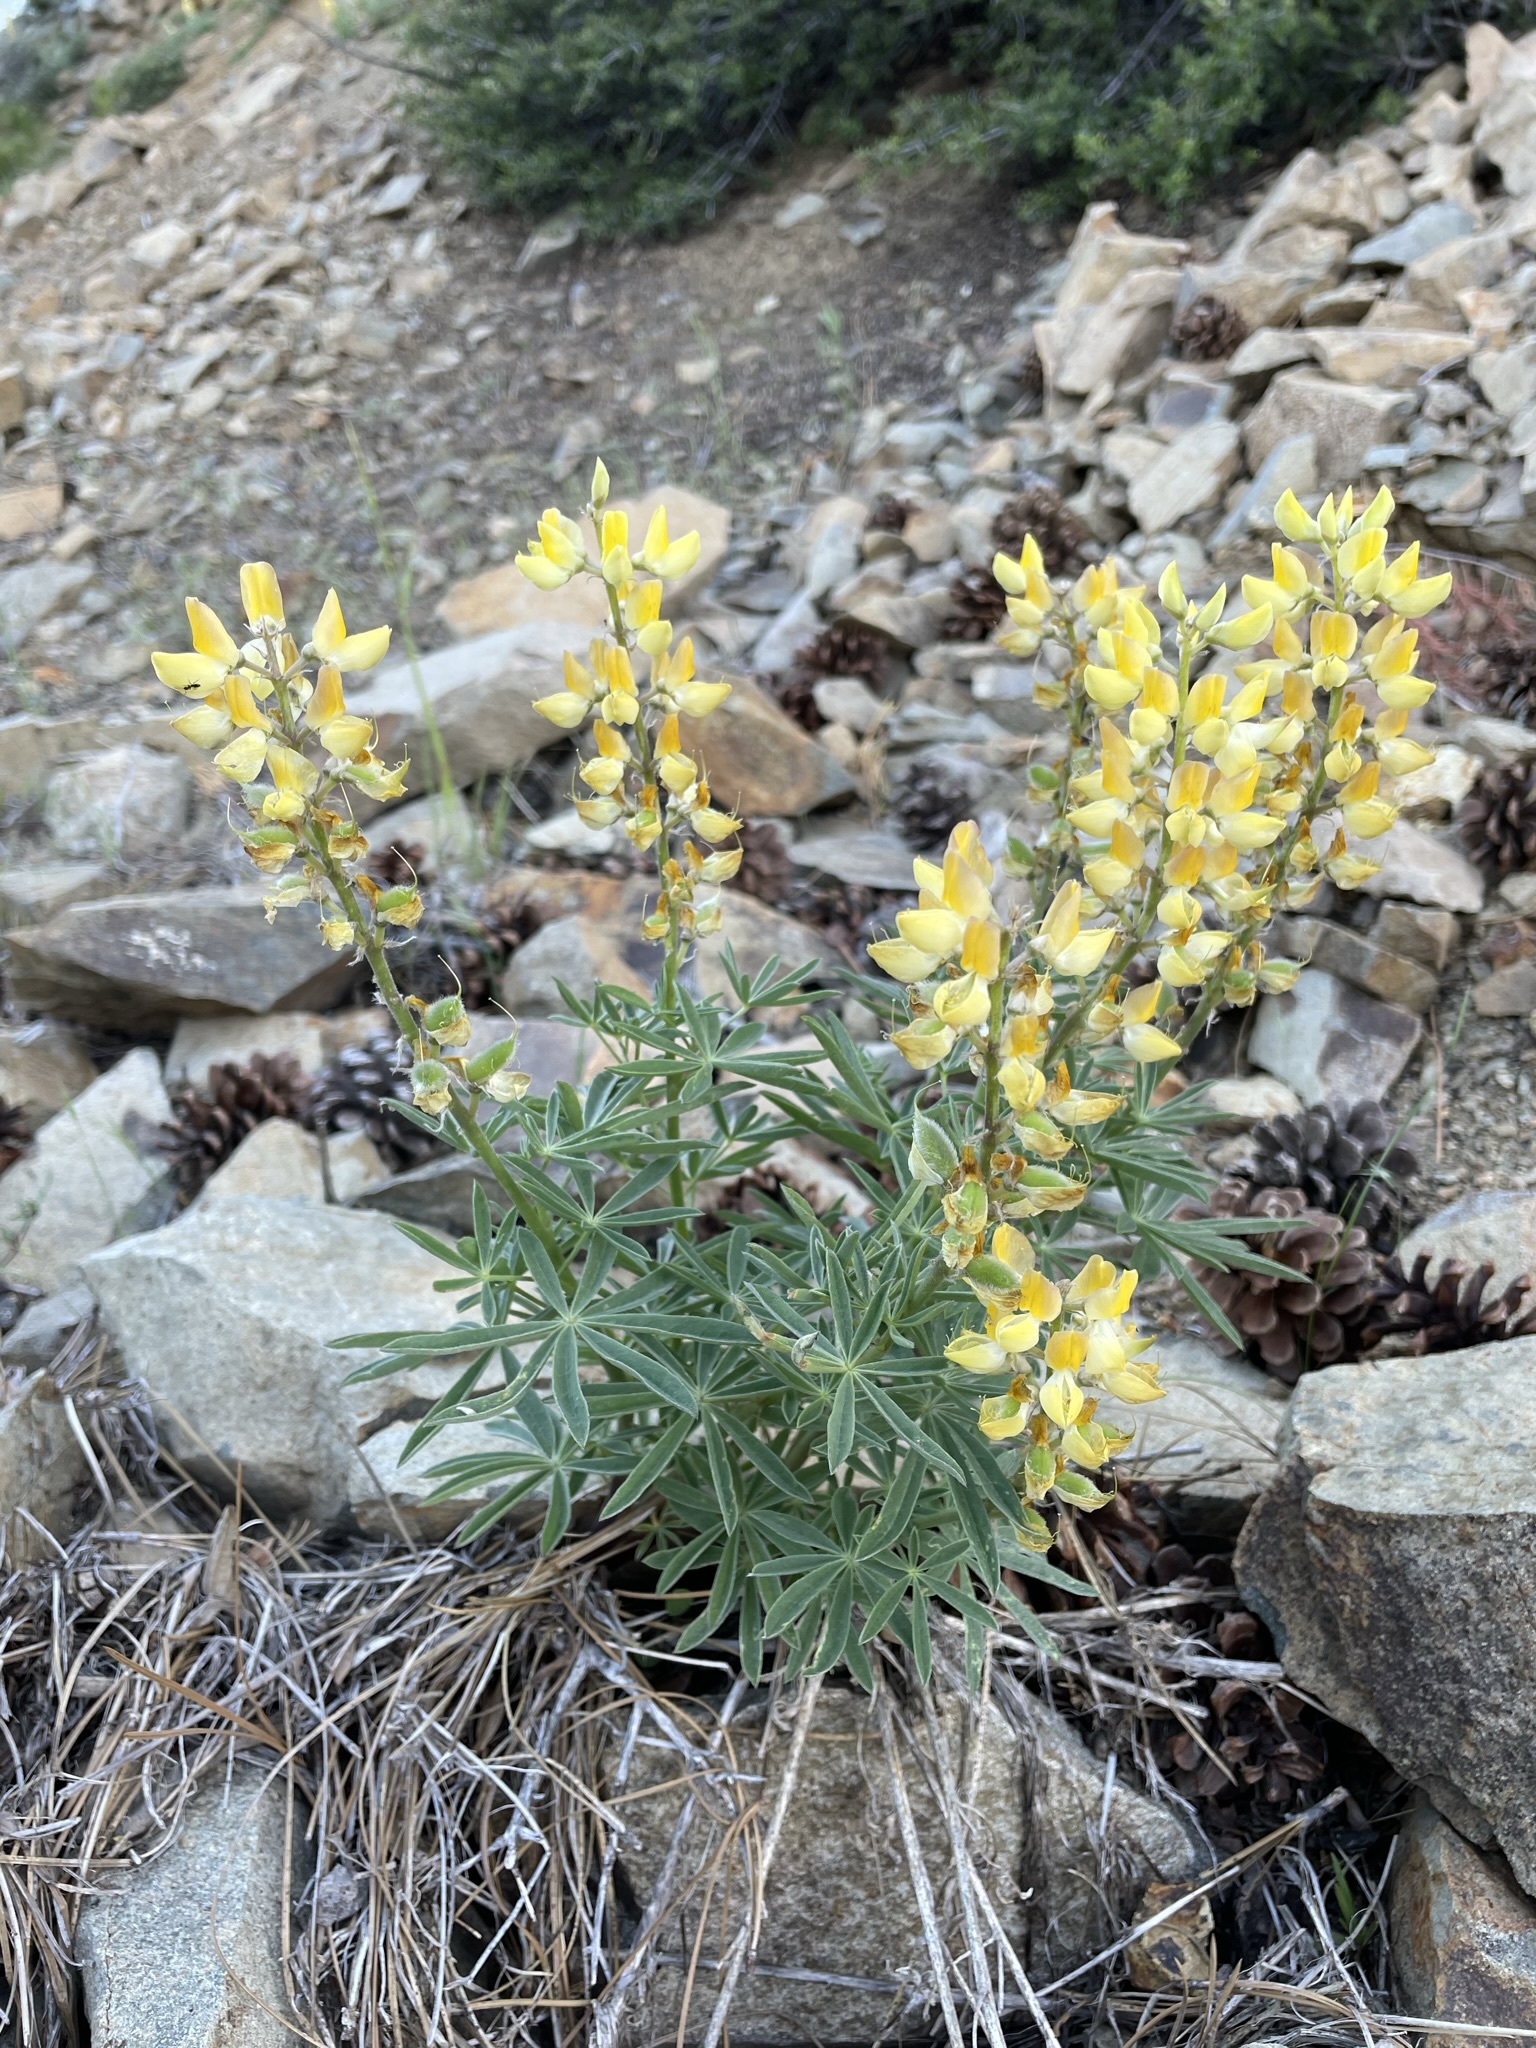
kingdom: Plantae
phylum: Tracheophyta
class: Magnoliopsida
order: Fabales
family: Fabaceae
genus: Lupinus
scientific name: Lupinus croceus
